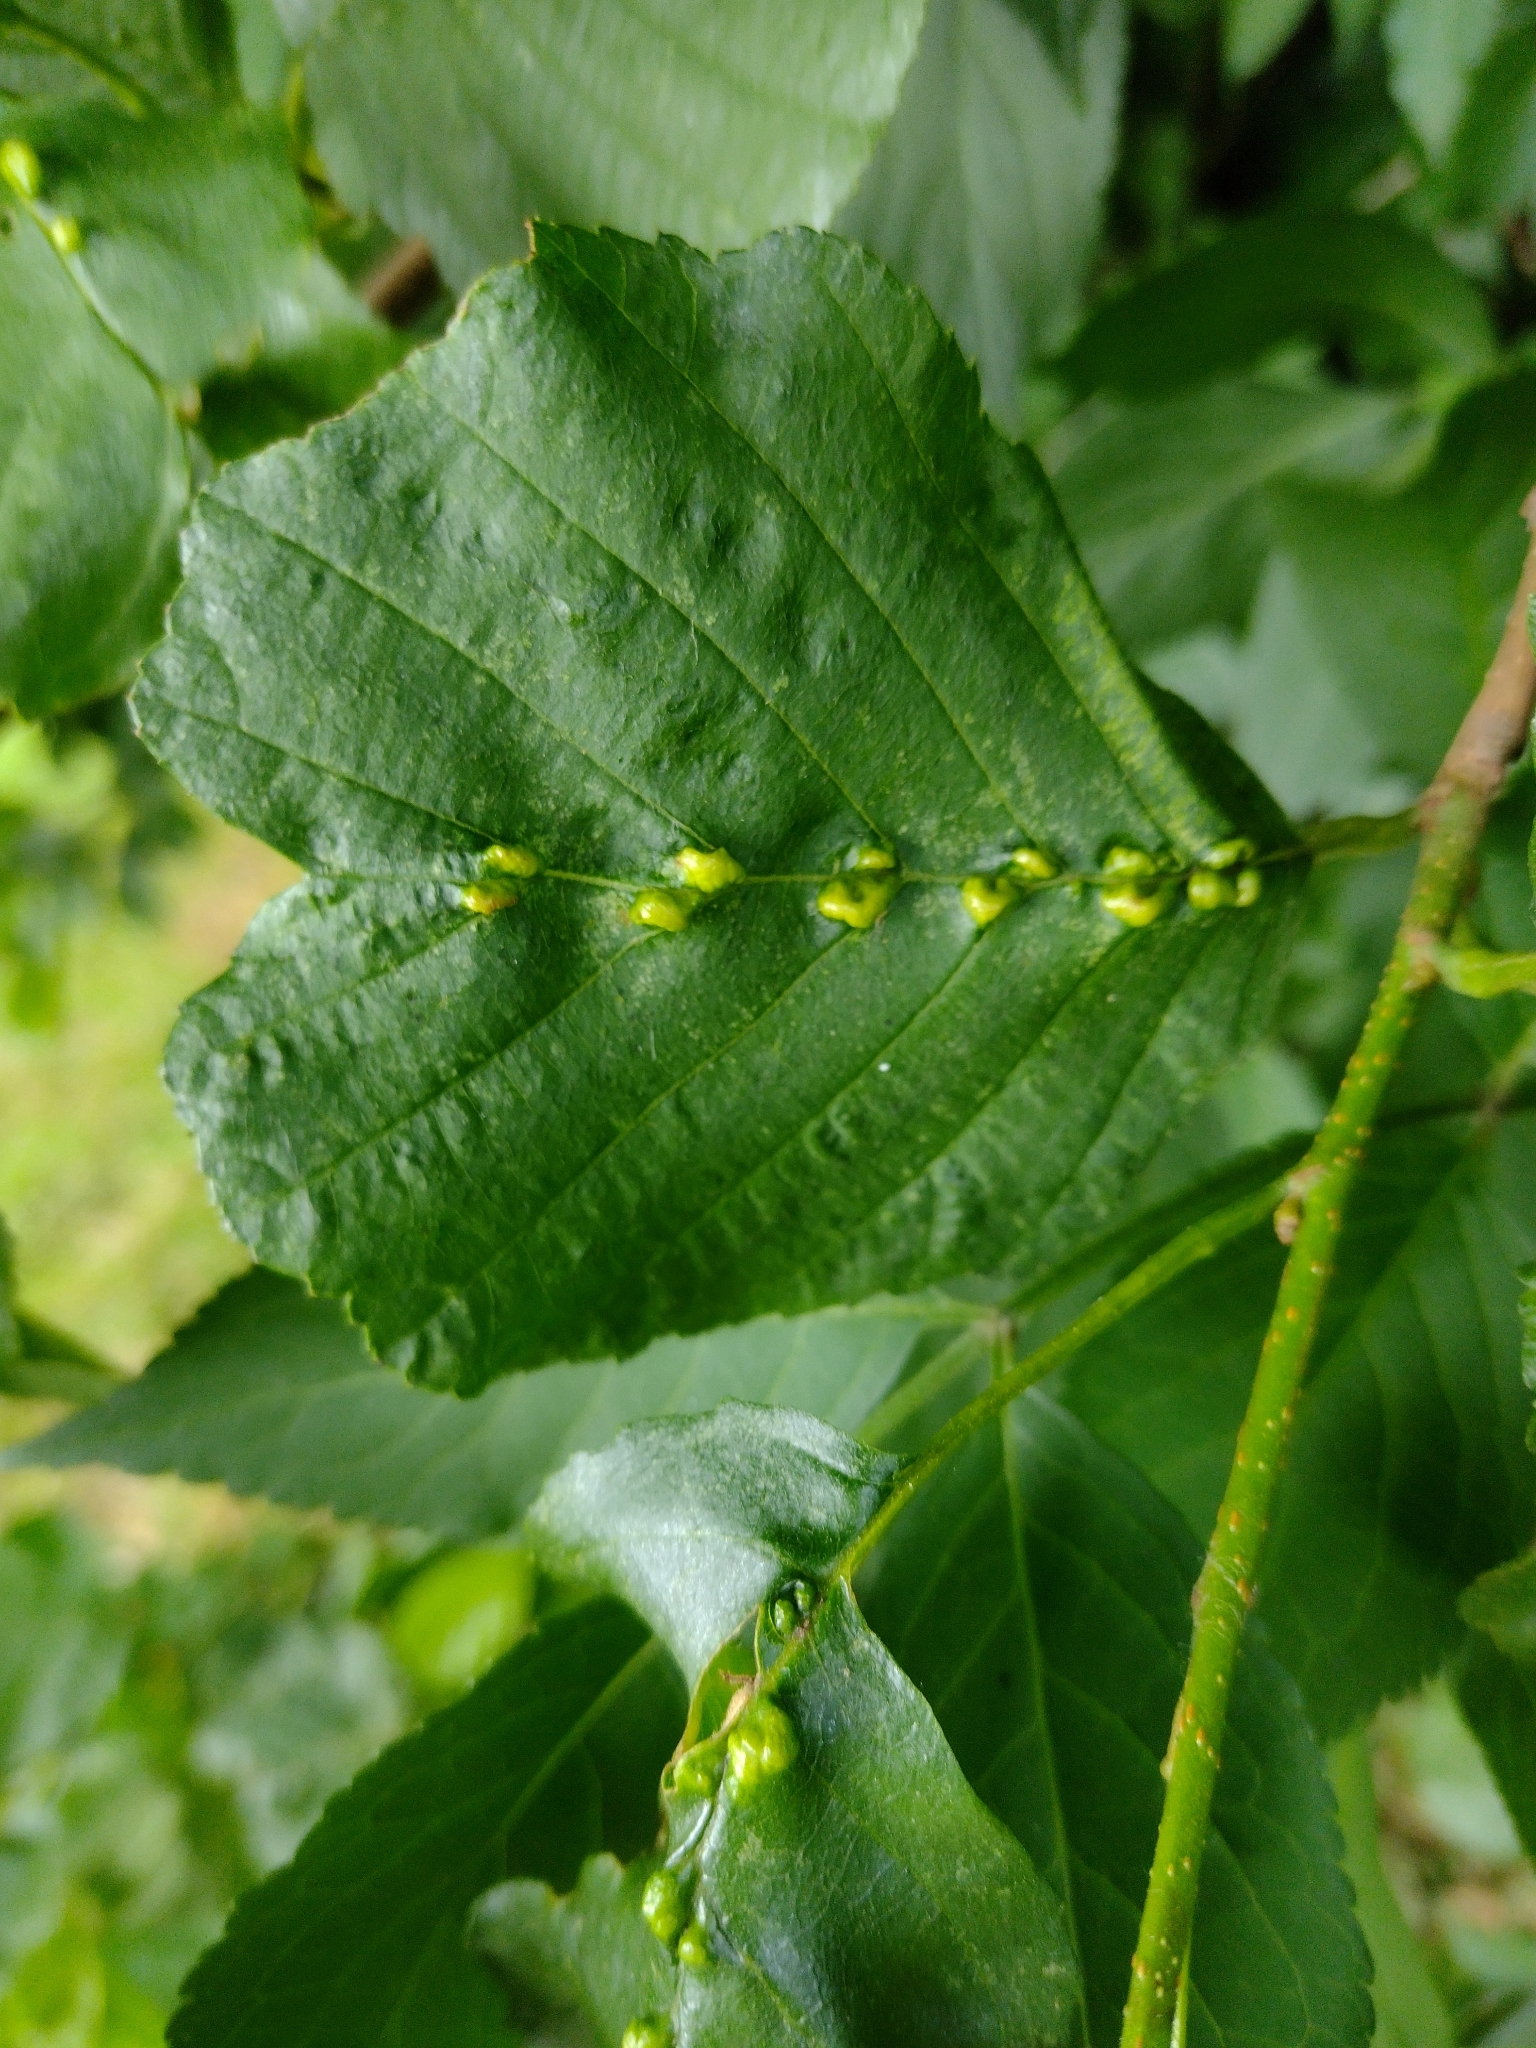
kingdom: Animalia
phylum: Arthropoda
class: Arachnida
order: Trombidiformes
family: Eriophyidae
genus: Eriophyes
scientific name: Eriophyes inangulis
